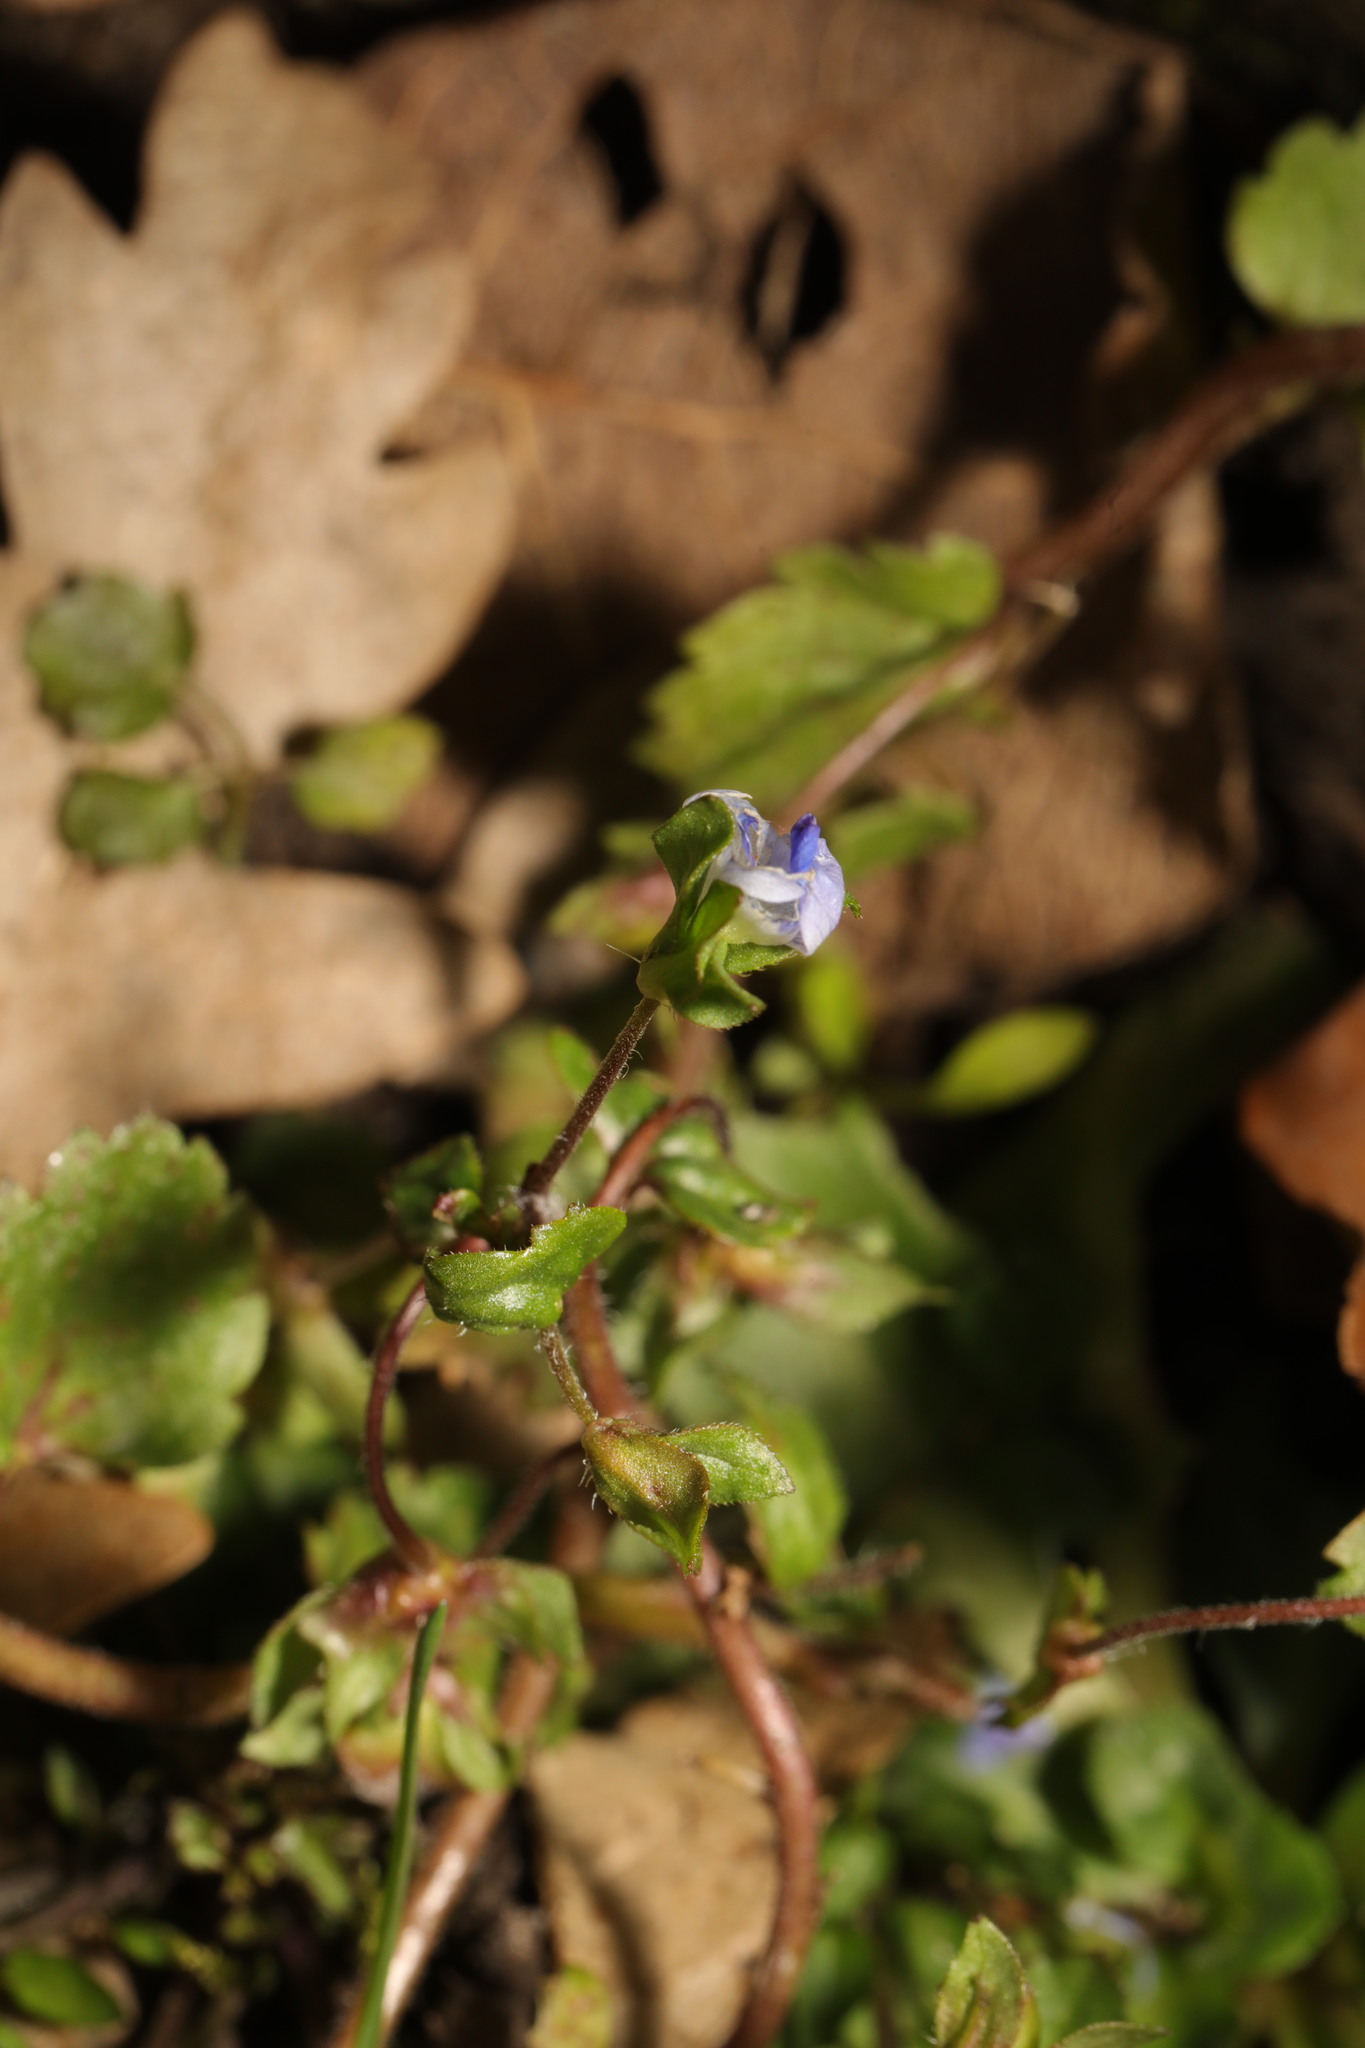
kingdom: Plantae
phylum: Tracheophyta
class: Magnoliopsida
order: Lamiales
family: Plantaginaceae
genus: Veronica
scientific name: Veronica persica
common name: Common field-speedwell
